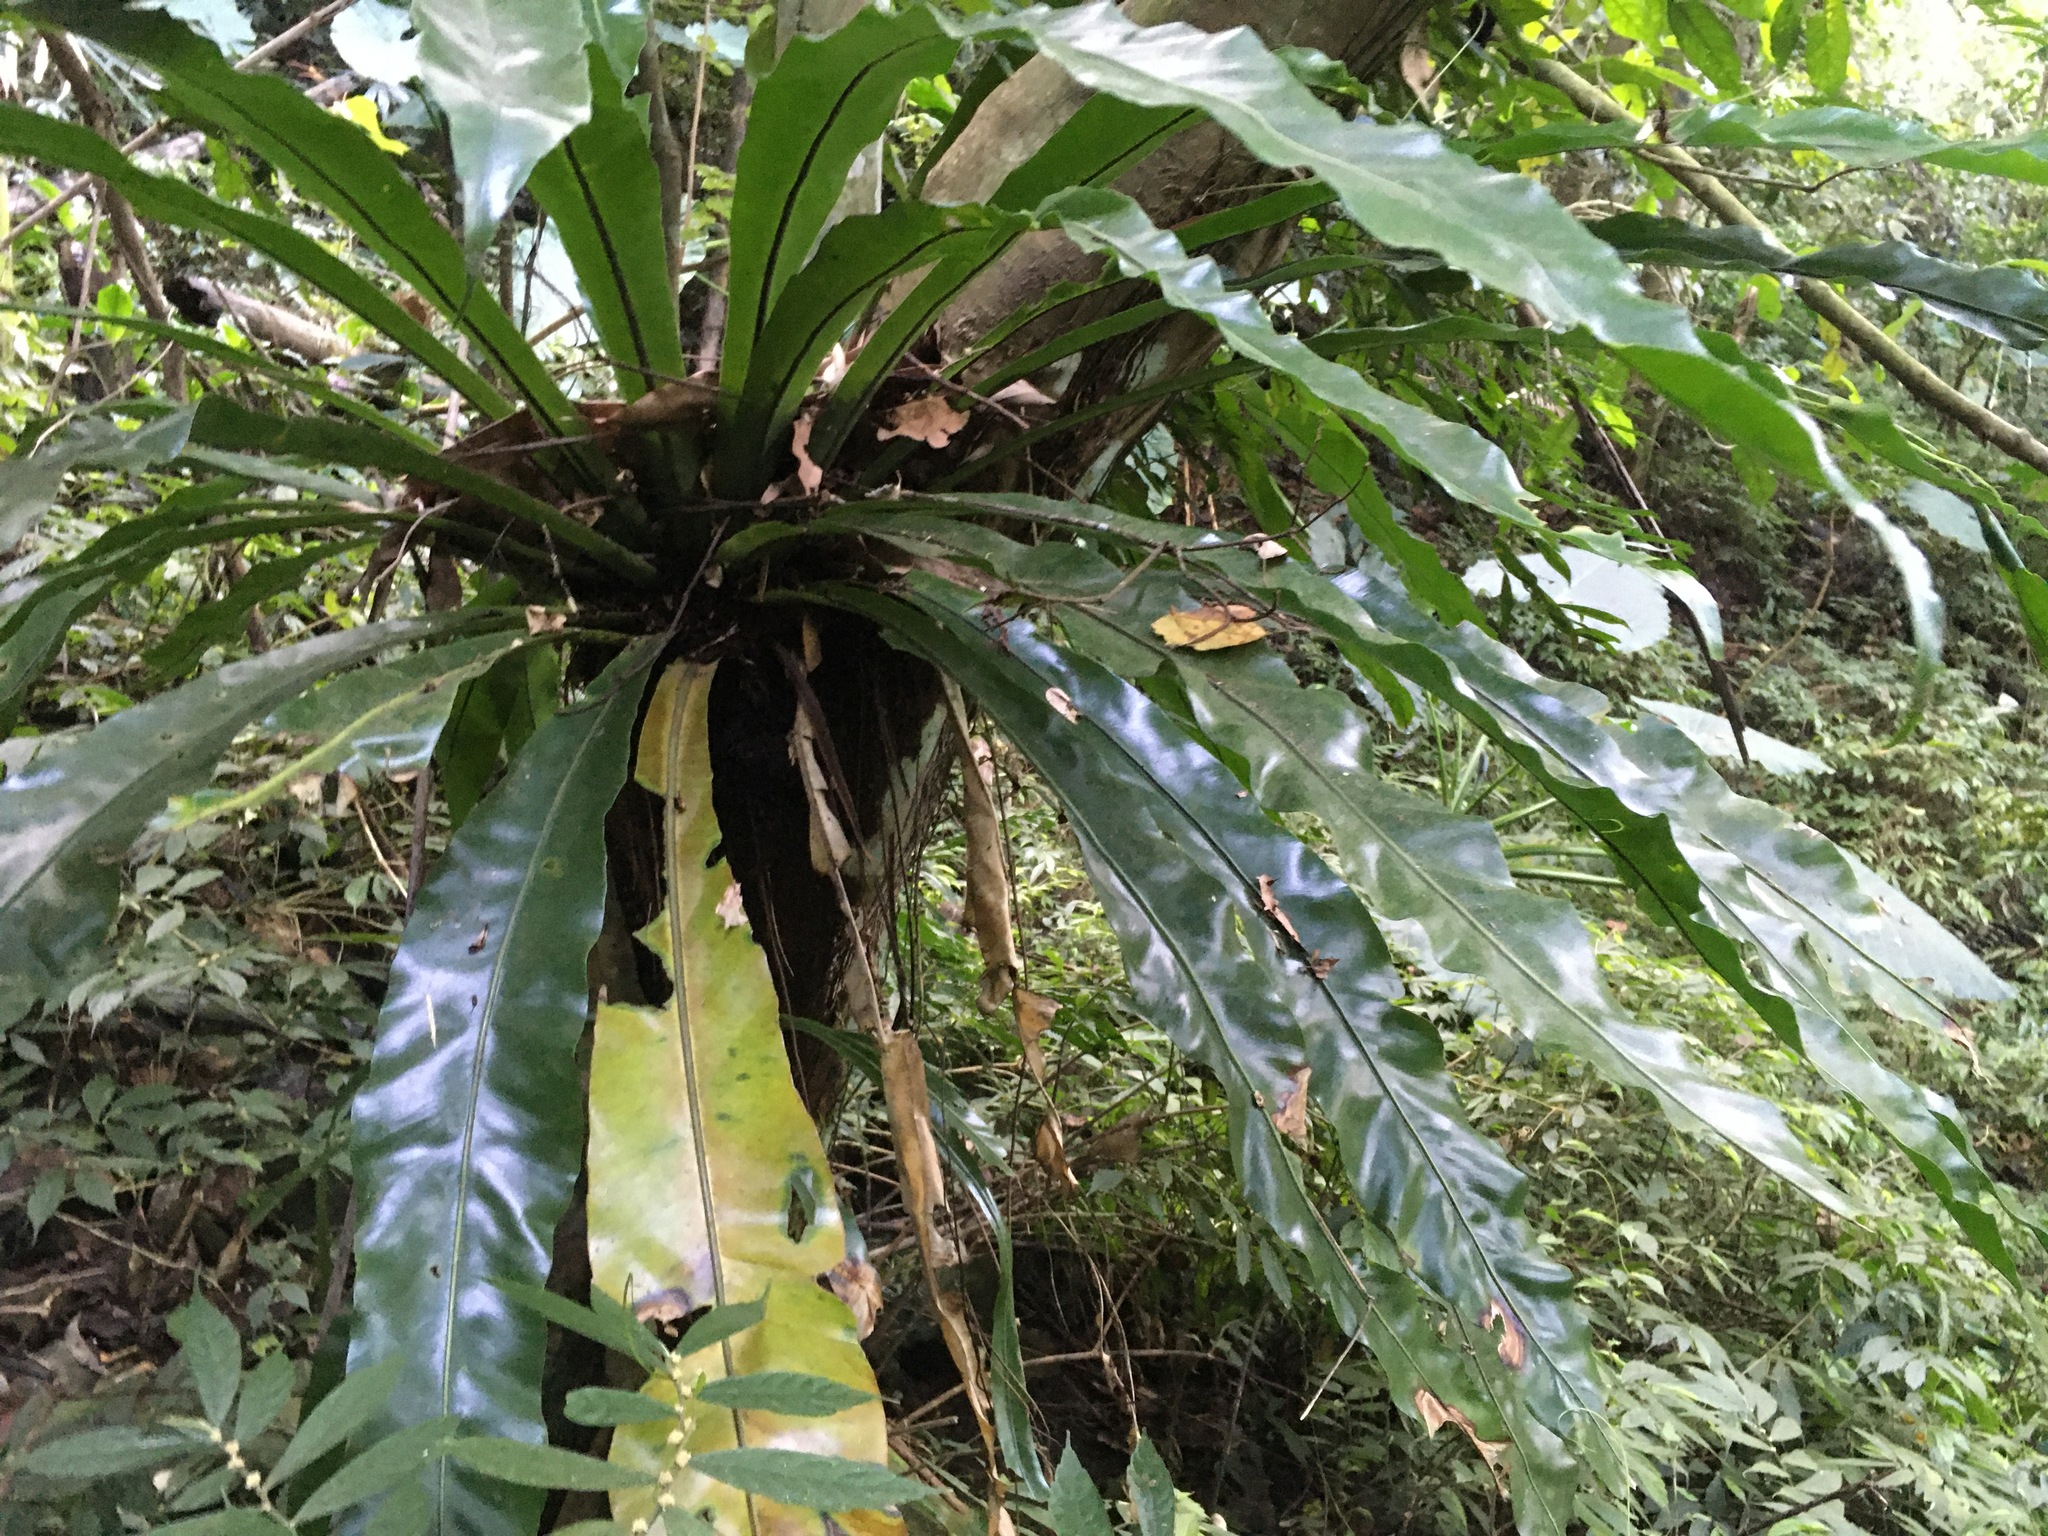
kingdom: Plantae
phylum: Tracheophyta
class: Polypodiopsida
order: Polypodiales
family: Aspleniaceae
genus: Asplenium
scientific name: Asplenium nidus
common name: Bird's-nest fern
